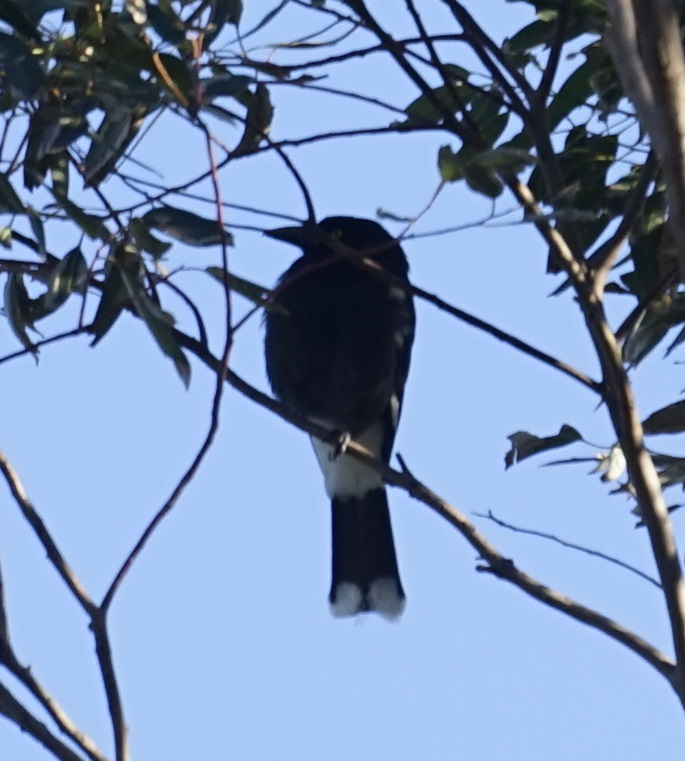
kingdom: Animalia
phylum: Chordata
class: Aves
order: Passeriformes
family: Cracticidae
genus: Strepera
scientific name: Strepera graculina
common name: Pied currawong
